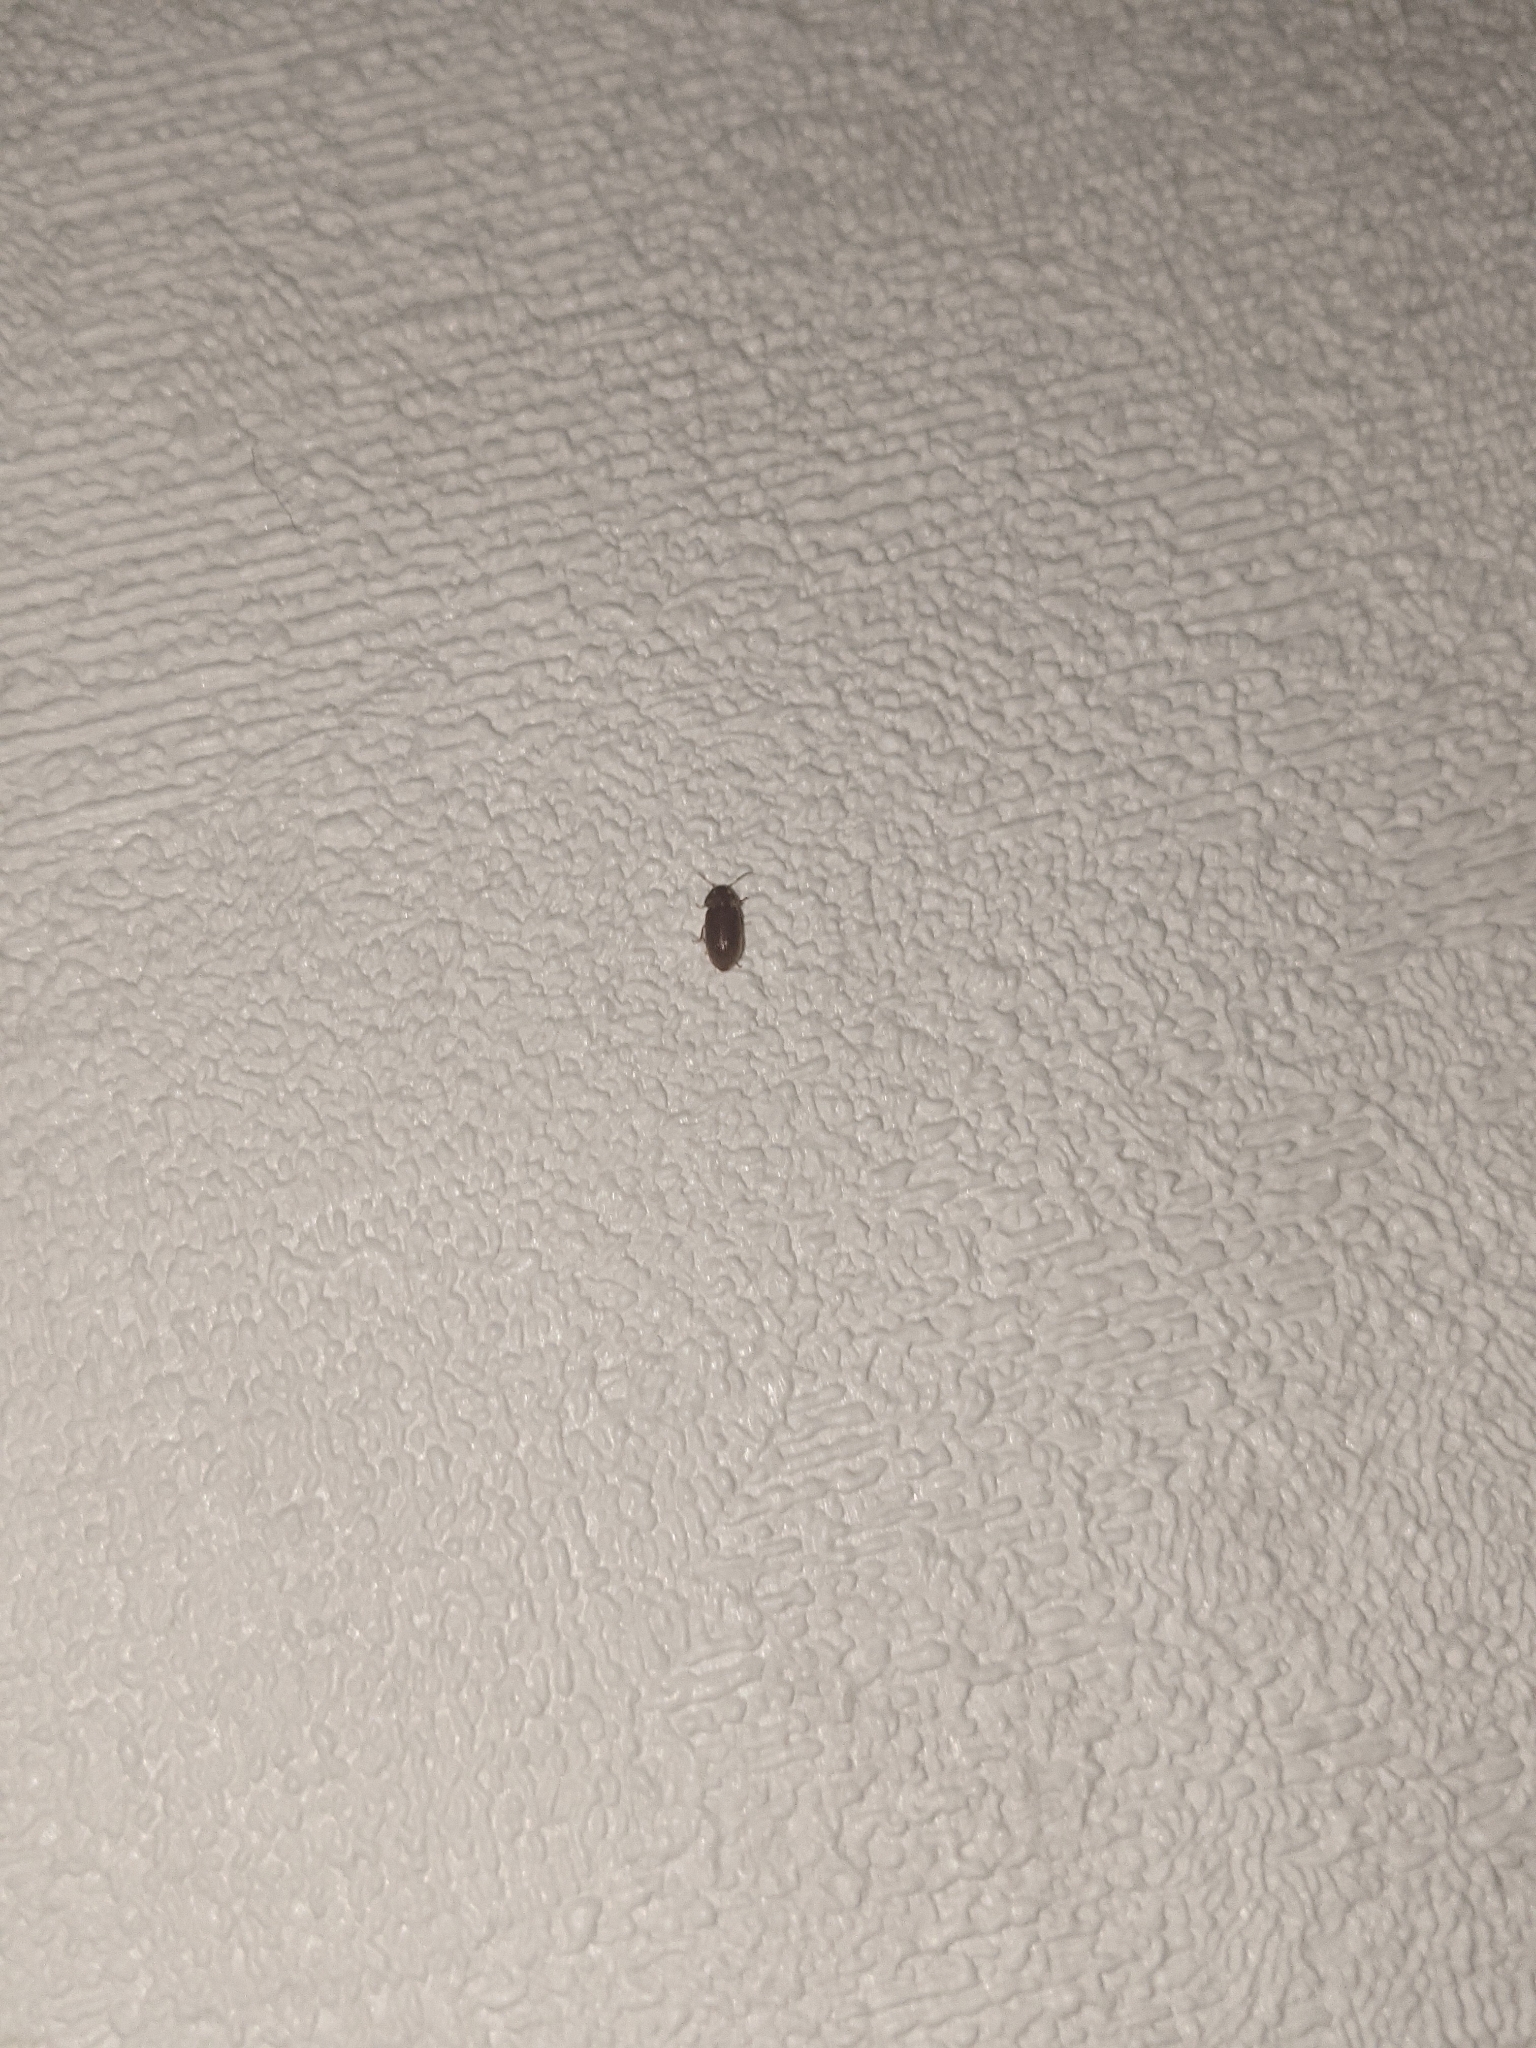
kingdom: Animalia
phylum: Arthropoda
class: Insecta
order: Coleoptera
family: Anobiidae
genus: Stegobium
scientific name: Stegobium paniceum
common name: Drugstore beetle
